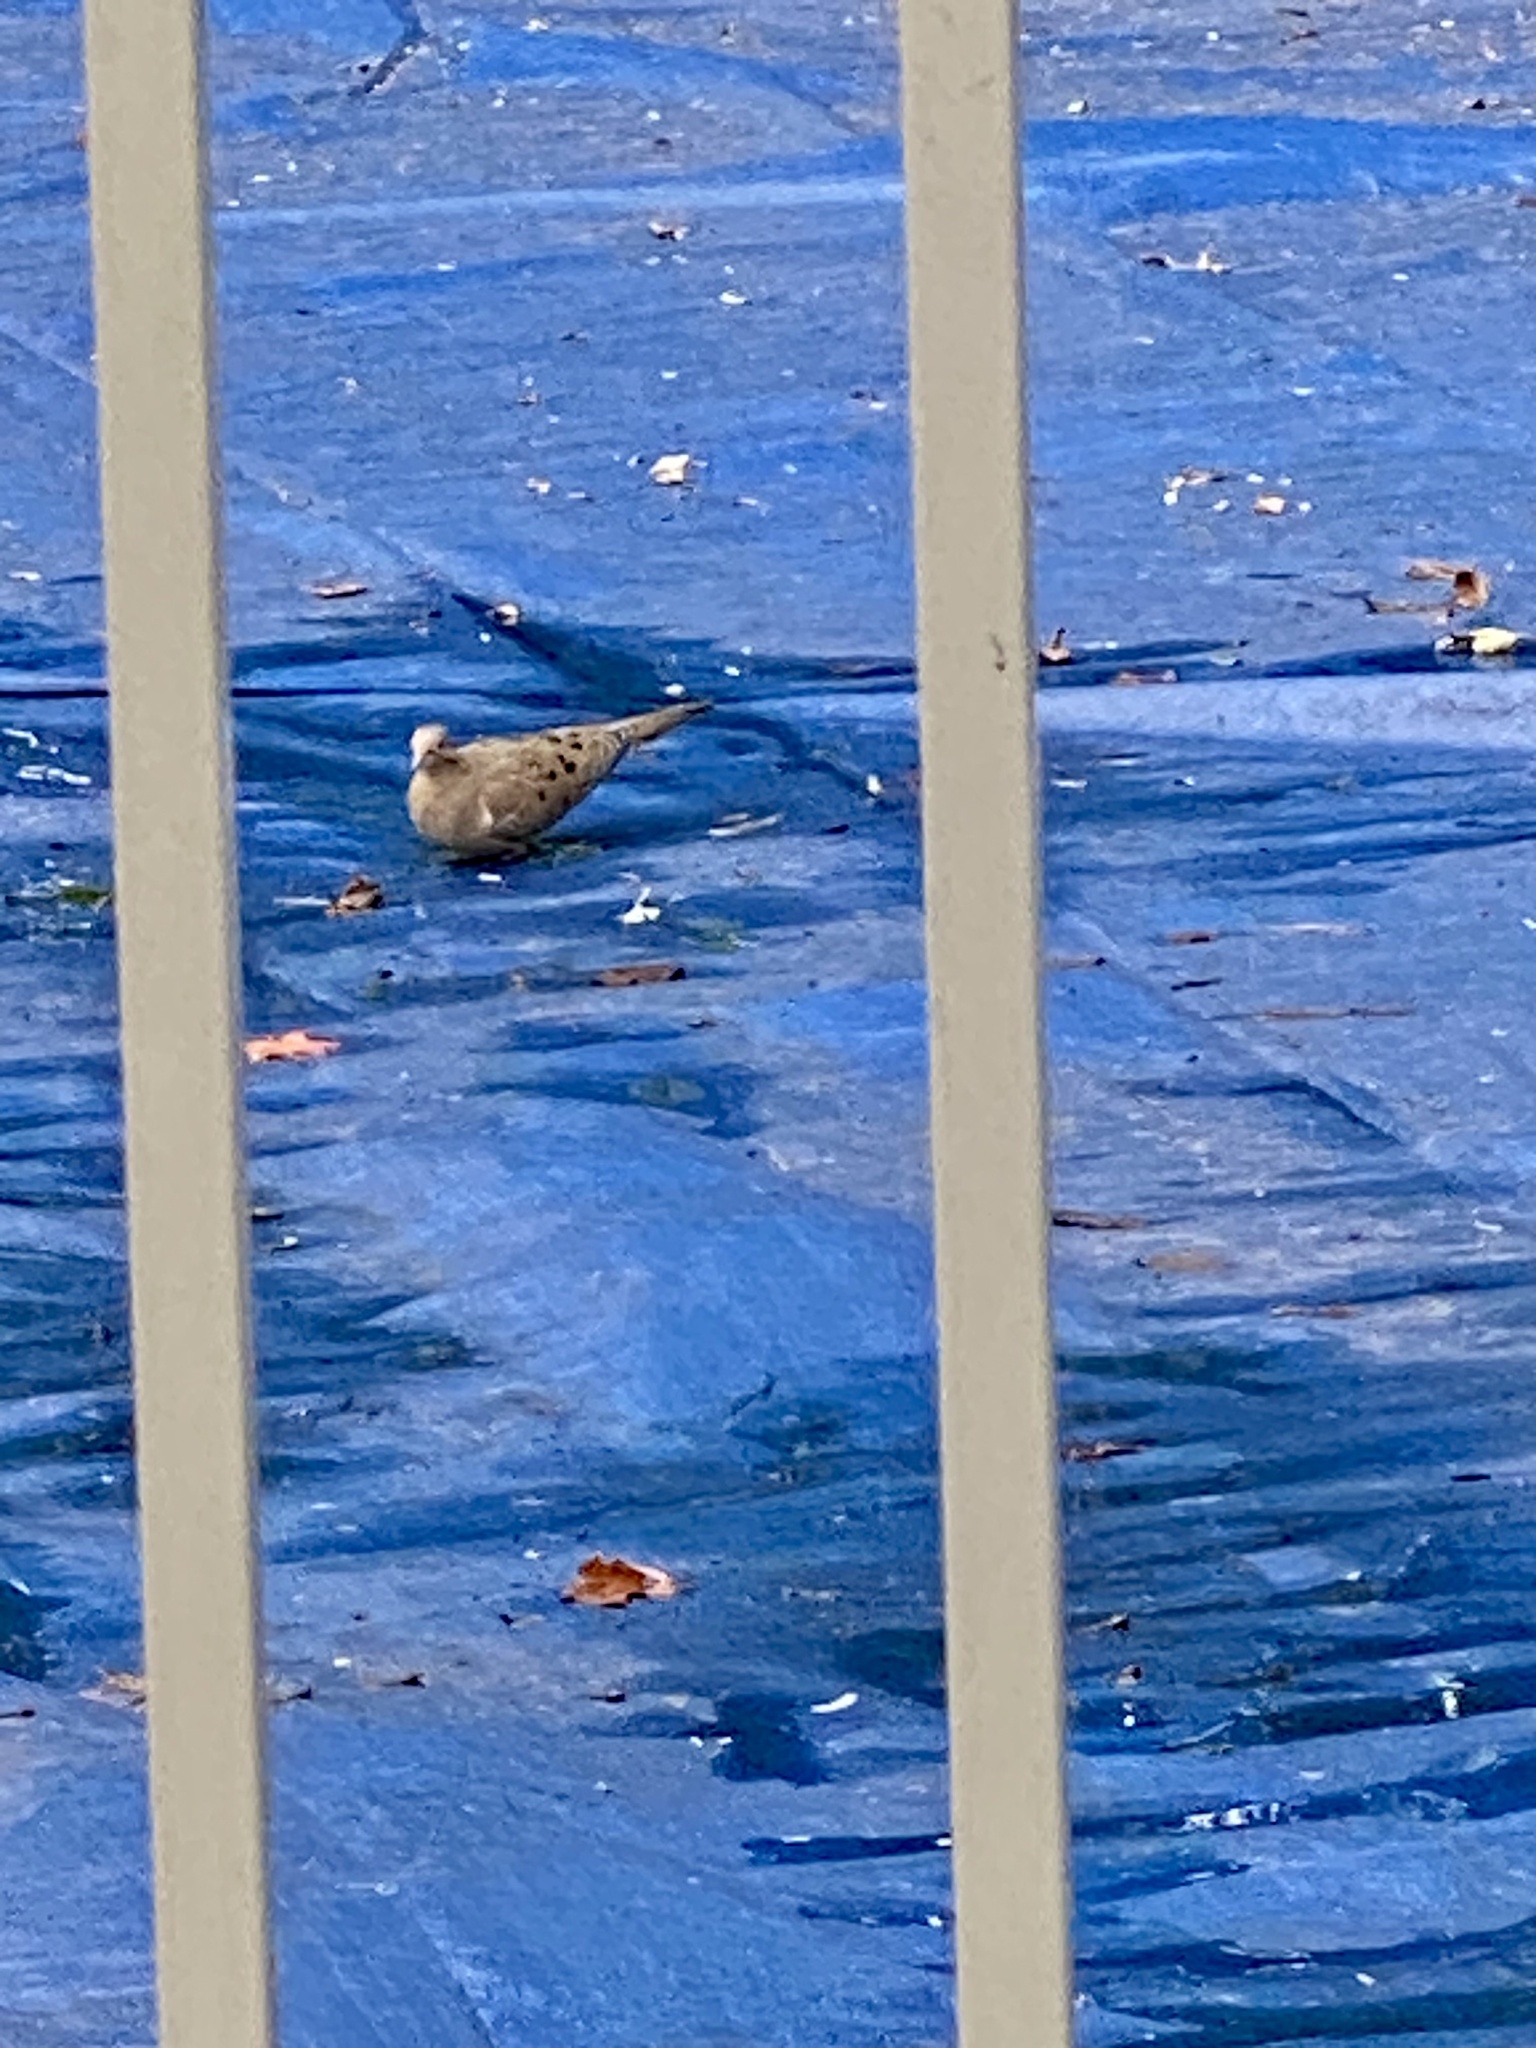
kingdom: Animalia
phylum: Chordata
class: Aves
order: Columbiformes
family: Columbidae
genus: Zenaida
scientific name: Zenaida macroura
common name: Mourning dove
